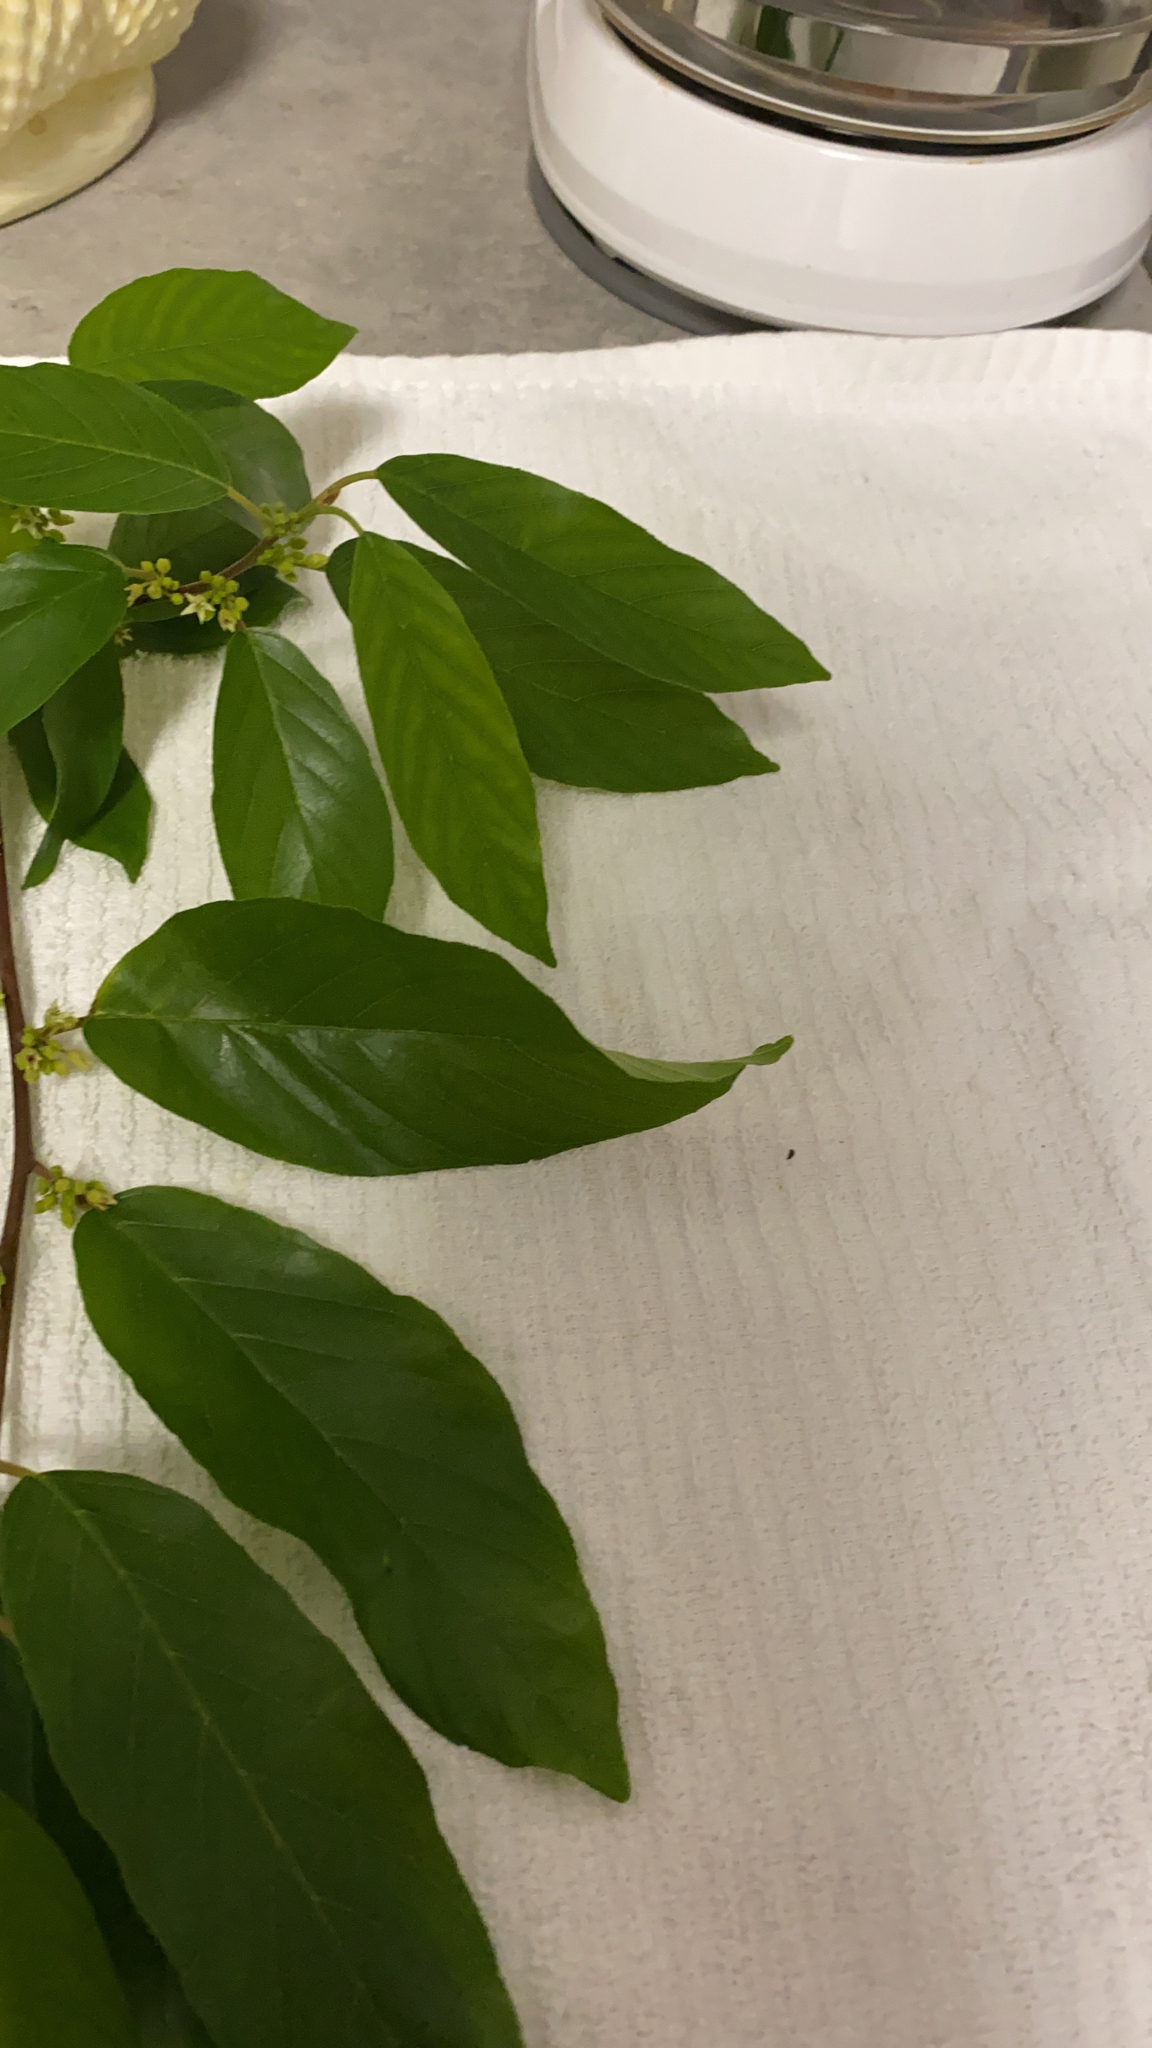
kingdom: Plantae
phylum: Tracheophyta
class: Magnoliopsida
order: Rosales
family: Rhamnaceae
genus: Frangula
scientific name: Frangula caroliniana
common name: Carolina buckthorn
